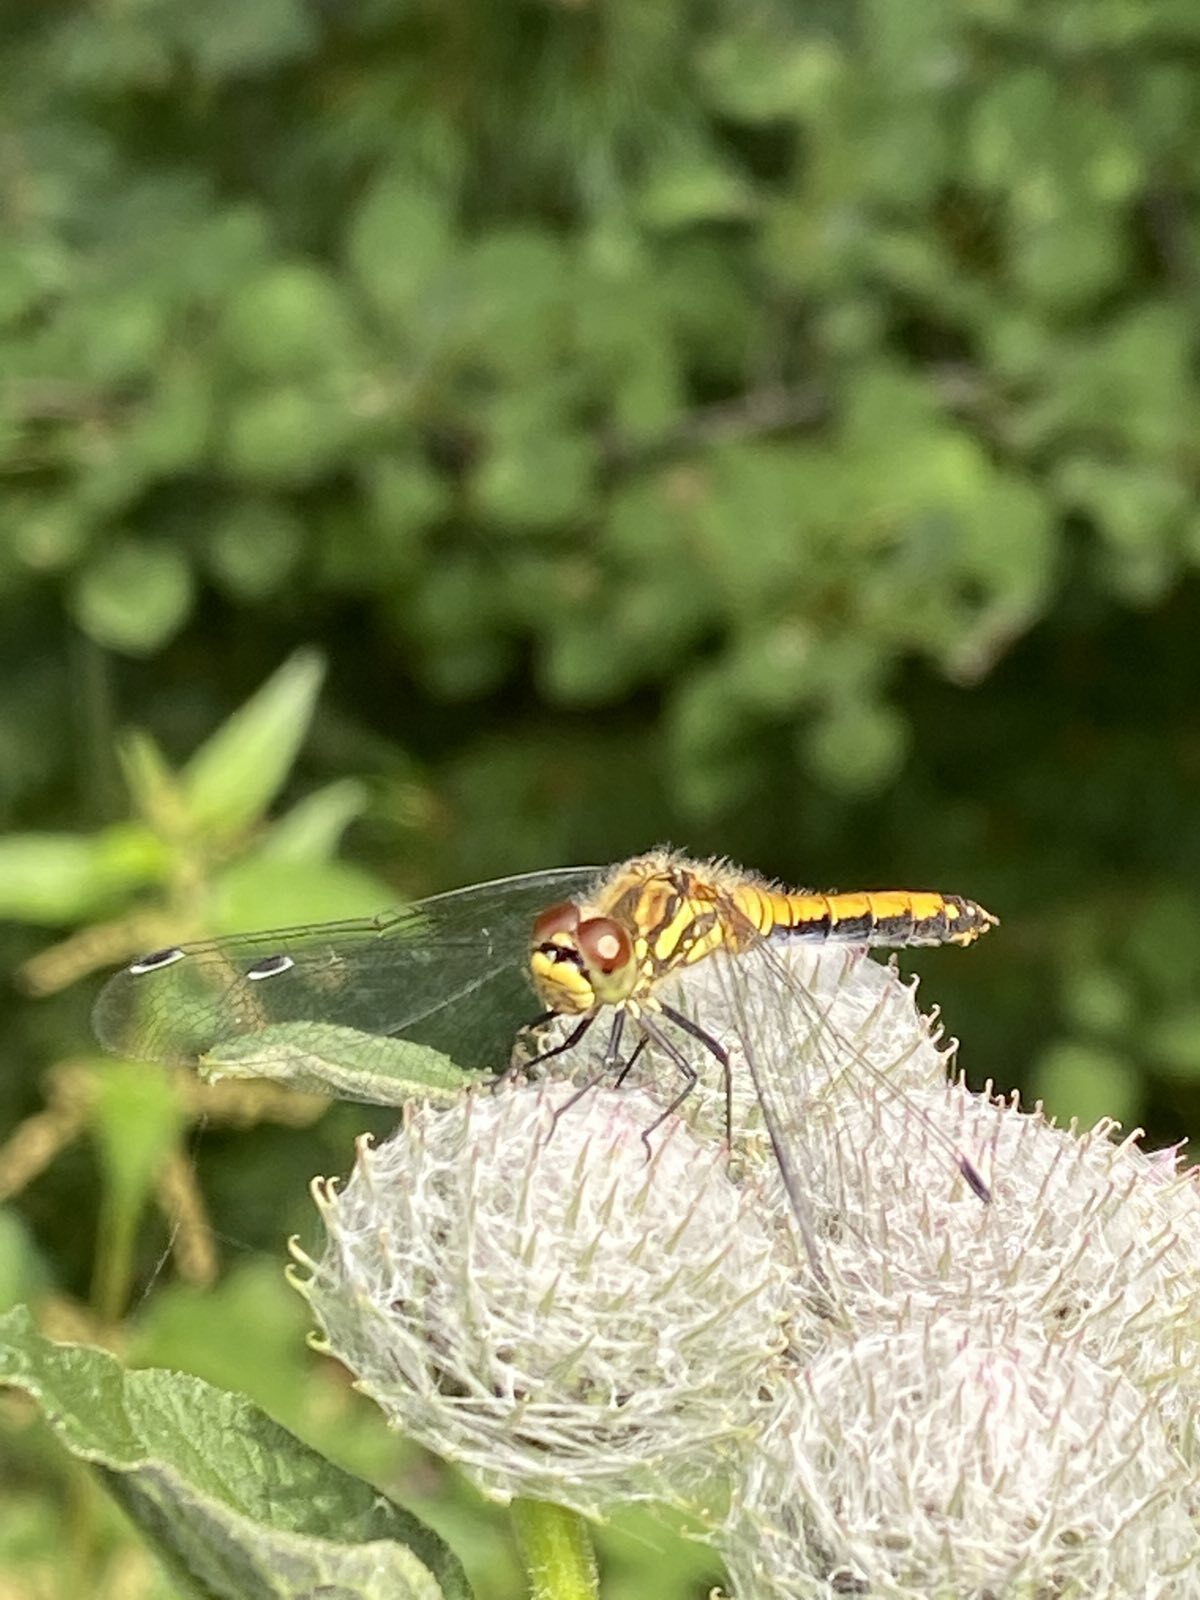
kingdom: Animalia
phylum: Arthropoda
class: Insecta
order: Odonata
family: Libellulidae
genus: Sympetrum
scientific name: Sympetrum flaveolum
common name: Yellow-winged darter
